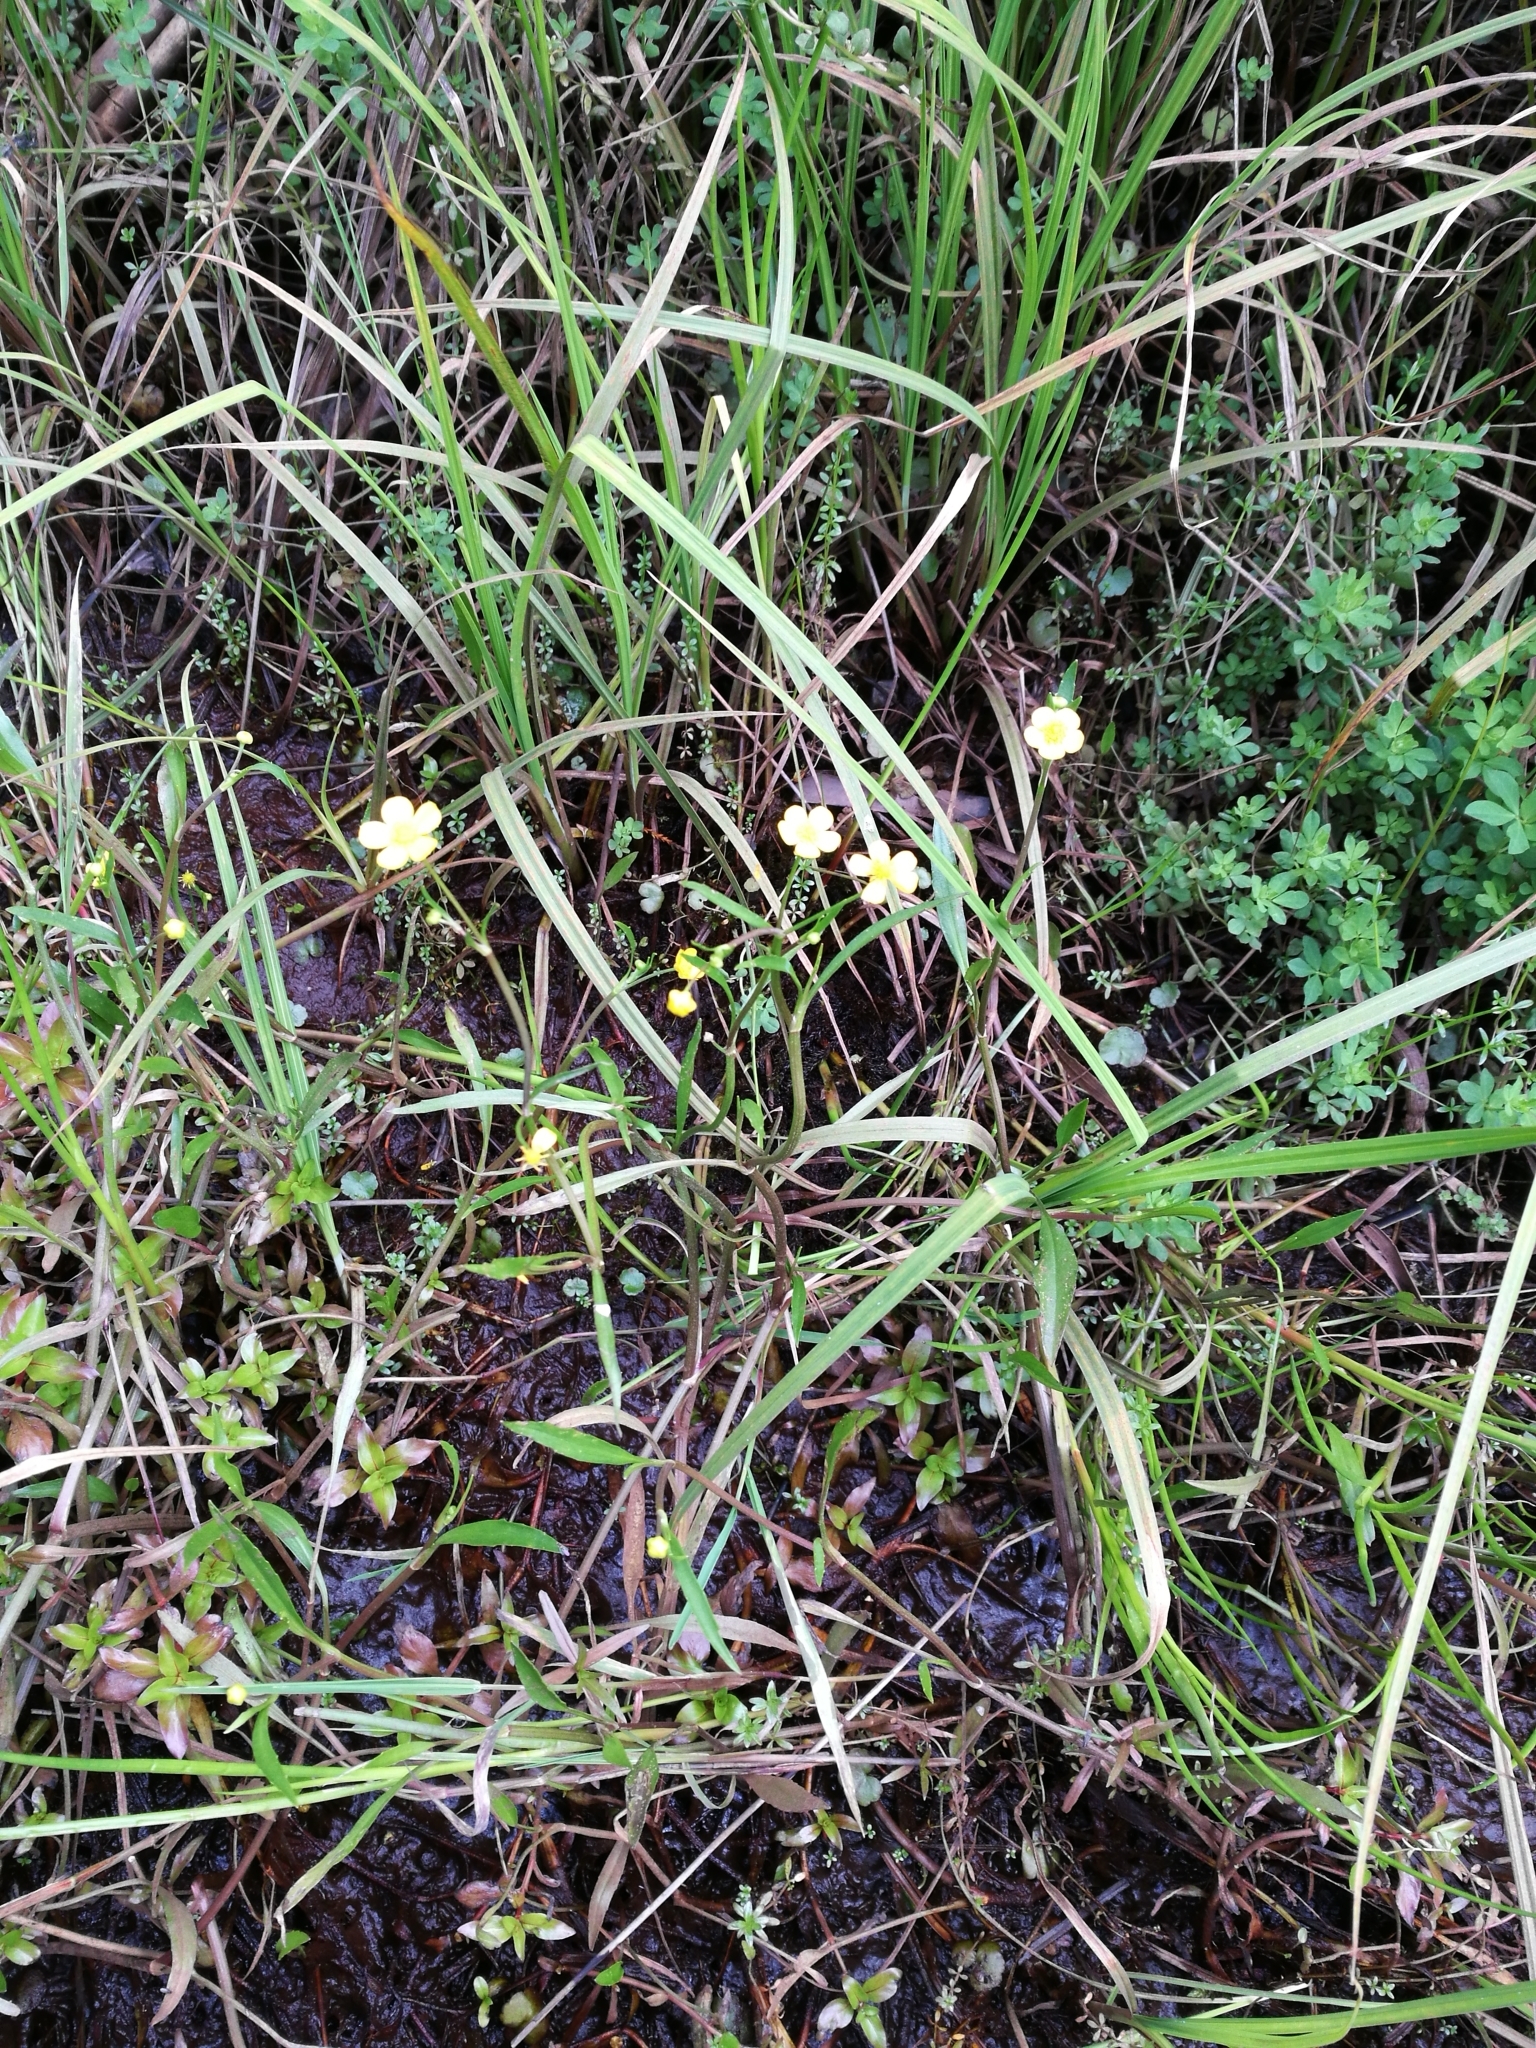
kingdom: Plantae
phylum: Tracheophyta
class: Magnoliopsida
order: Ranunculales
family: Ranunculaceae
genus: Ranunculus
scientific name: Ranunculus flammula
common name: Lesser spearwort
